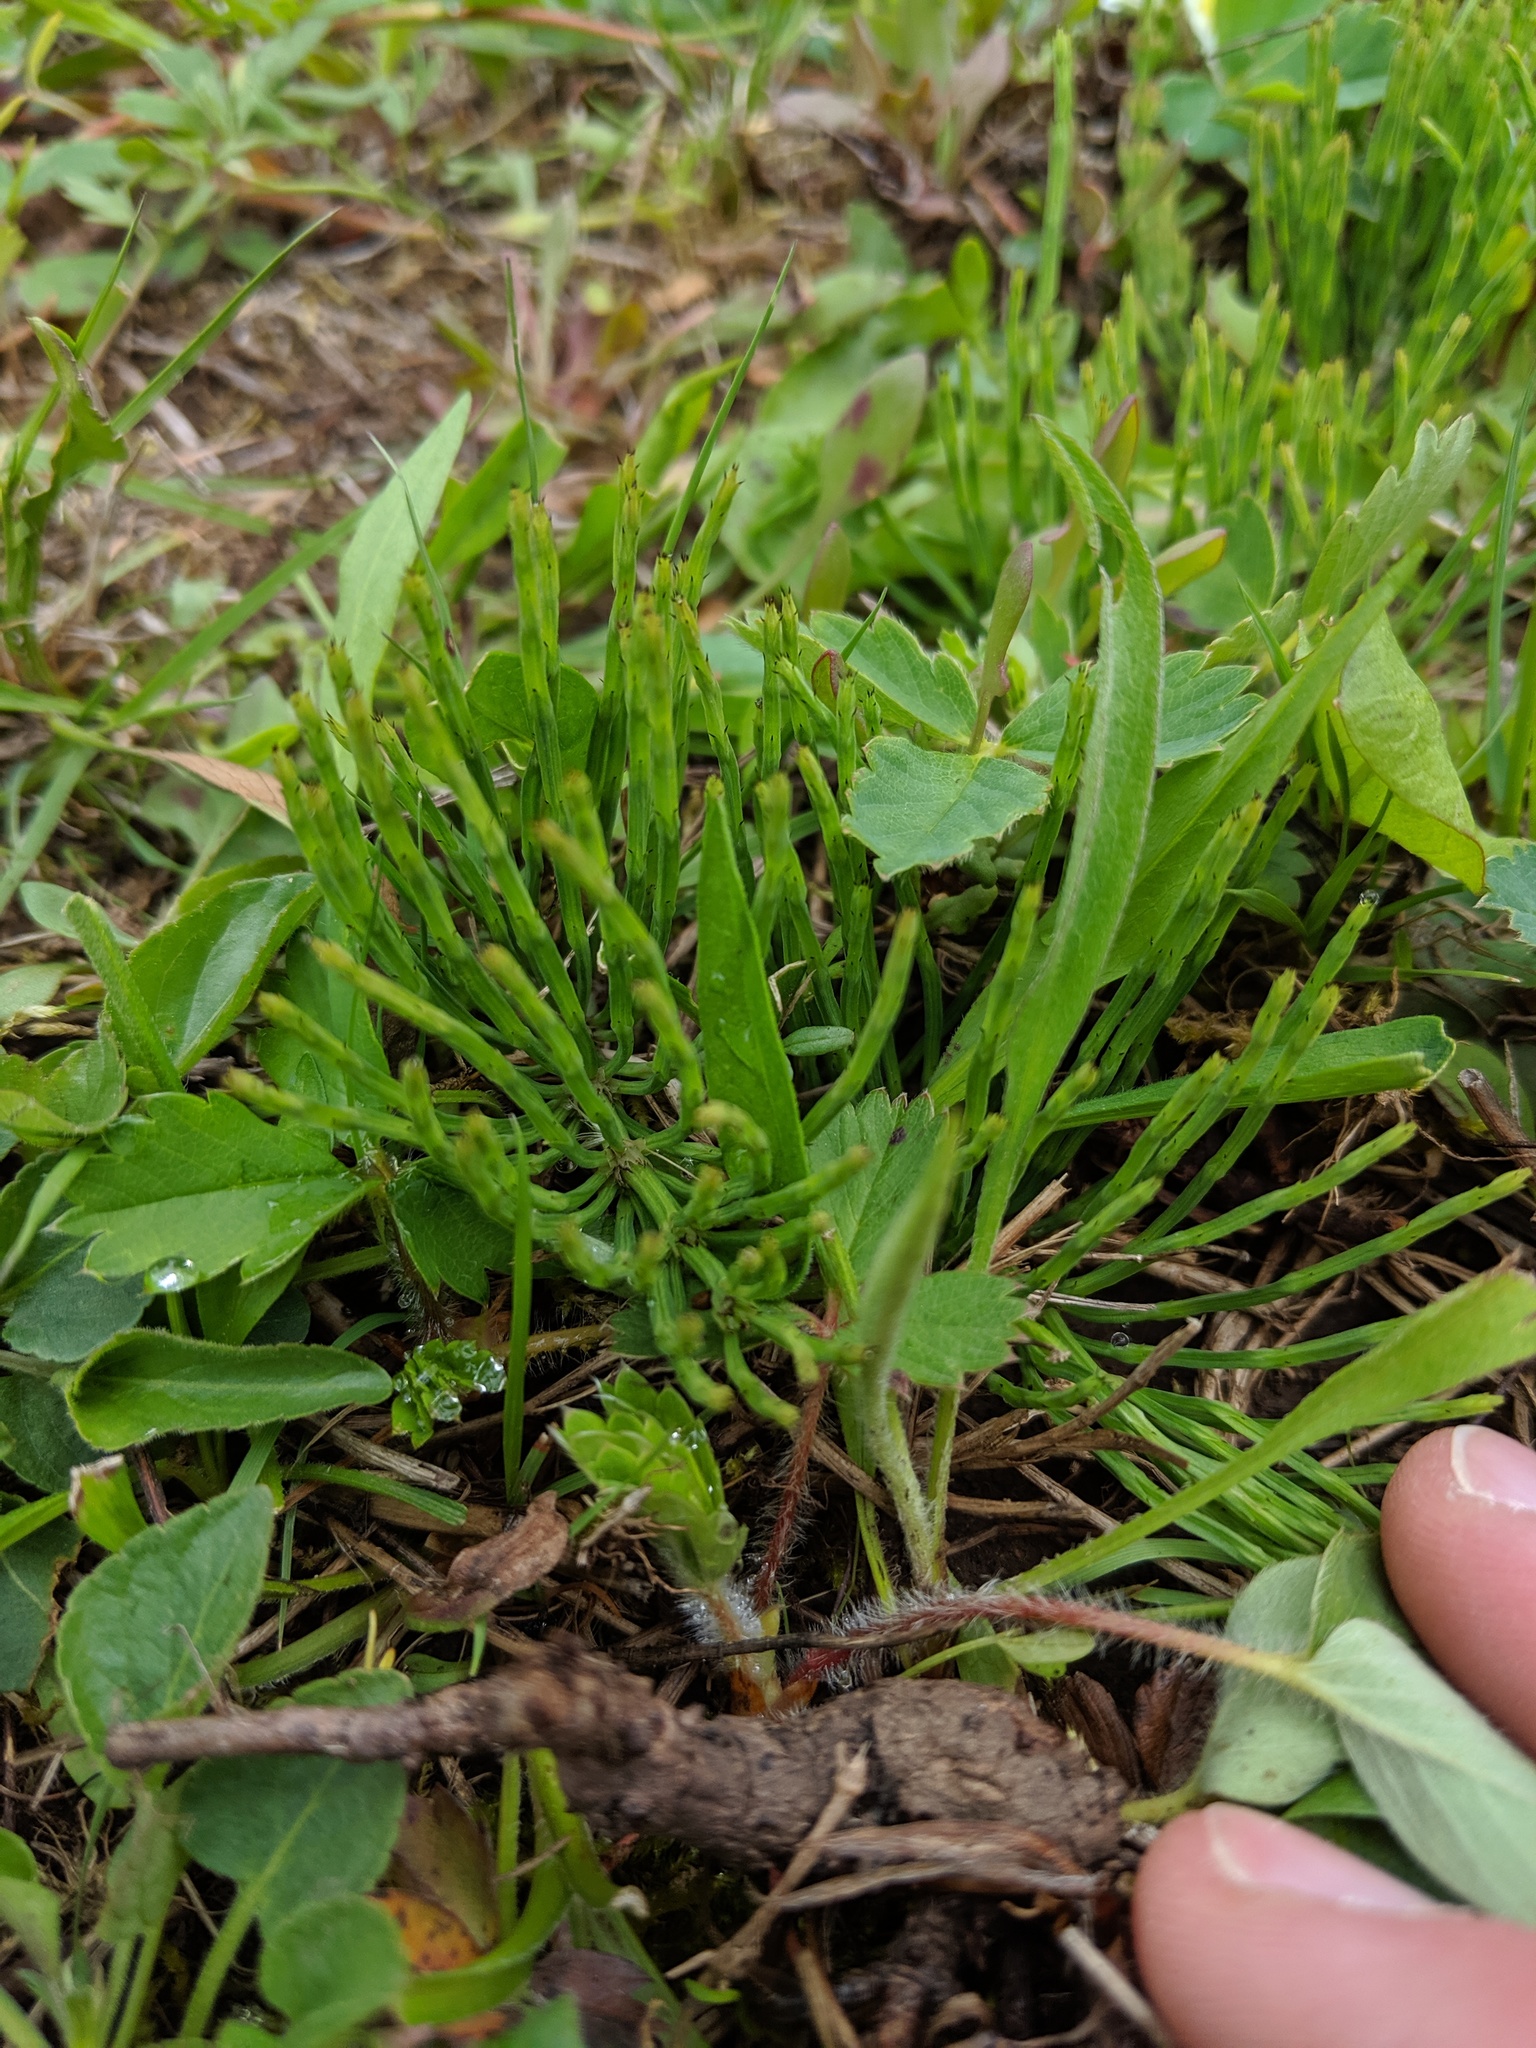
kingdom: Plantae
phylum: Tracheophyta
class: Polypodiopsida
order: Equisetales
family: Equisetaceae
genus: Equisetum
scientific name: Equisetum arvense
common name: Field horsetail
